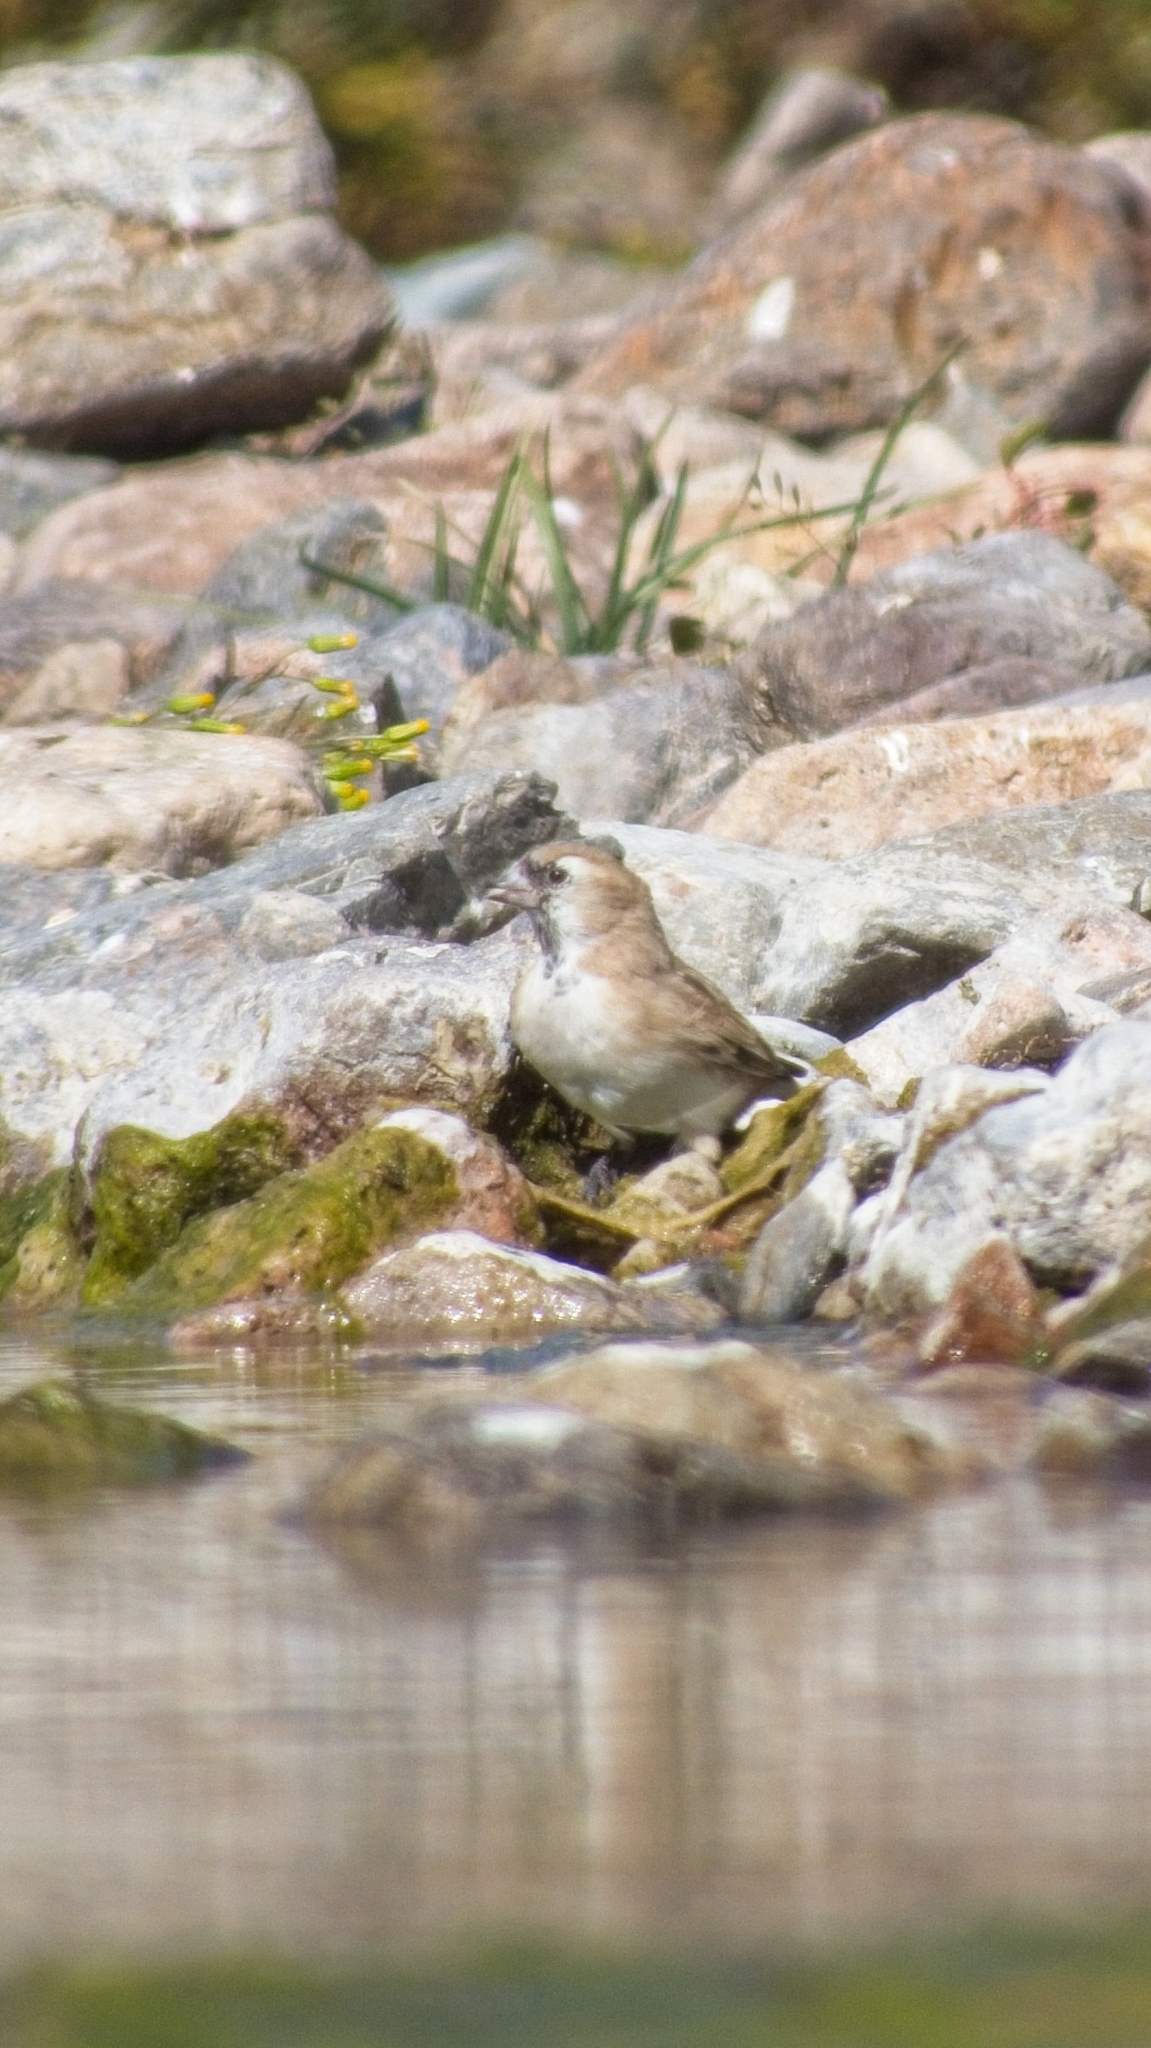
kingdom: Animalia
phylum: Chordata
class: Aves
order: Passeriformes
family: Passeridae
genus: Pyrgilauda
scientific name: Pyrgilauda davidiana
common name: Pere david's snowfinch
